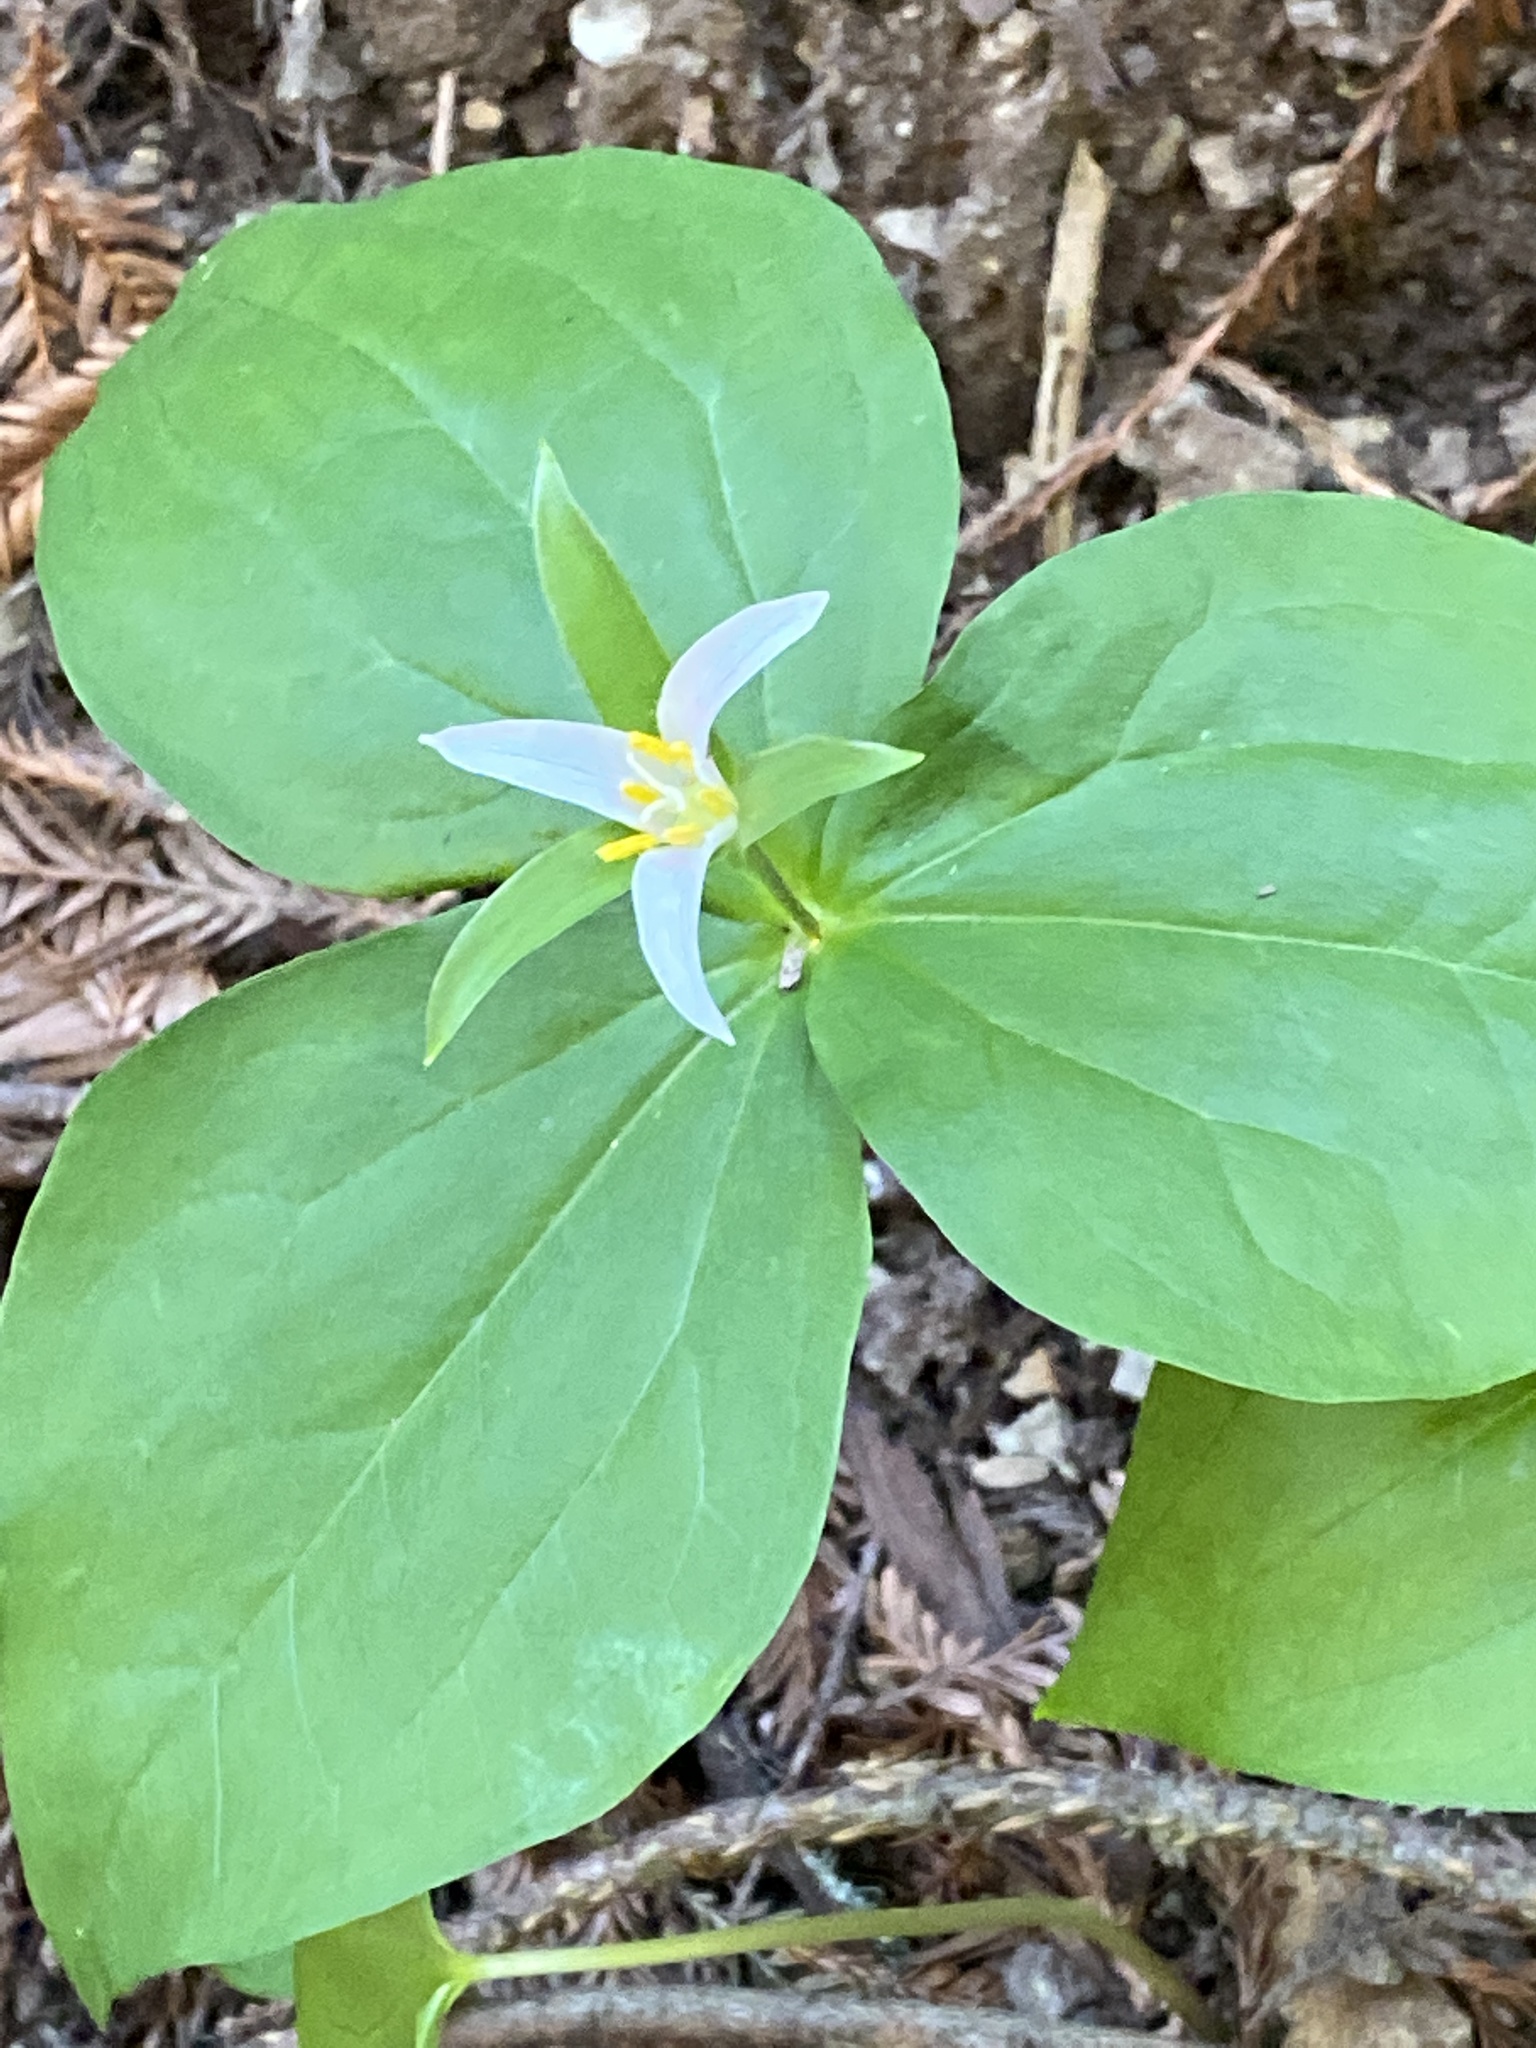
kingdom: Plantae
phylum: Tracheophyta
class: Liliopsida
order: Liliales
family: Melanthiaceae
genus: Trillium
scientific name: Trillium ovatum
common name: Pacific trillium
